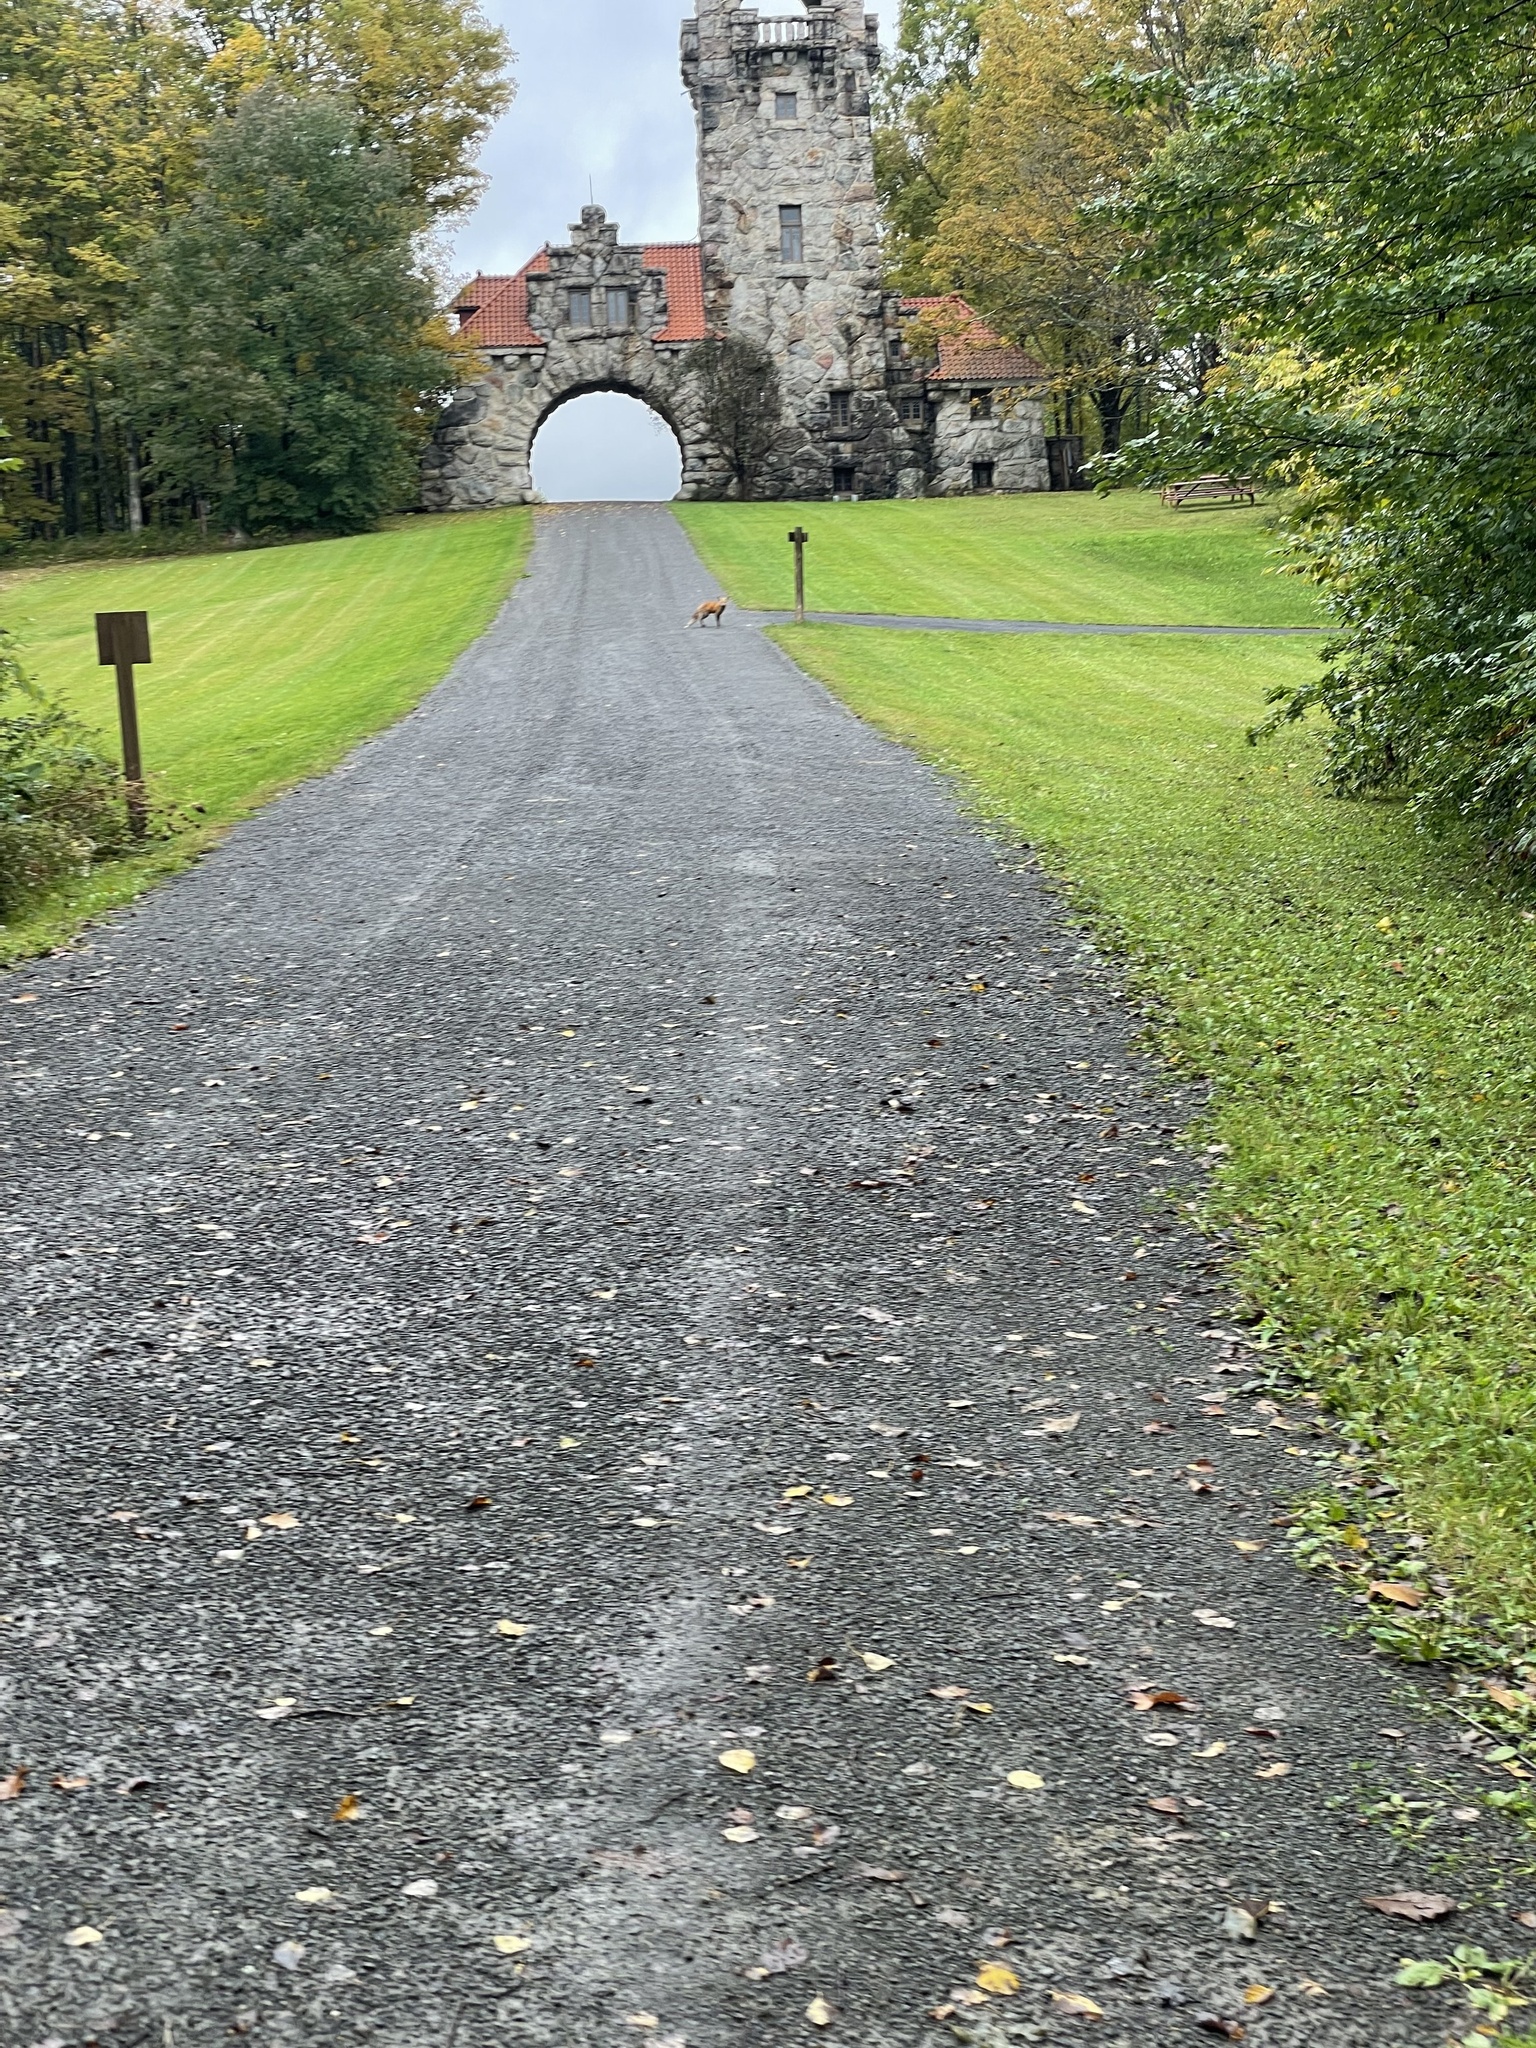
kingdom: Animalia
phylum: Chordata
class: Mammalia
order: Carnivora
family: Canidae
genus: Vulpes
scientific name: Vulpes vulpes
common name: Red fox
